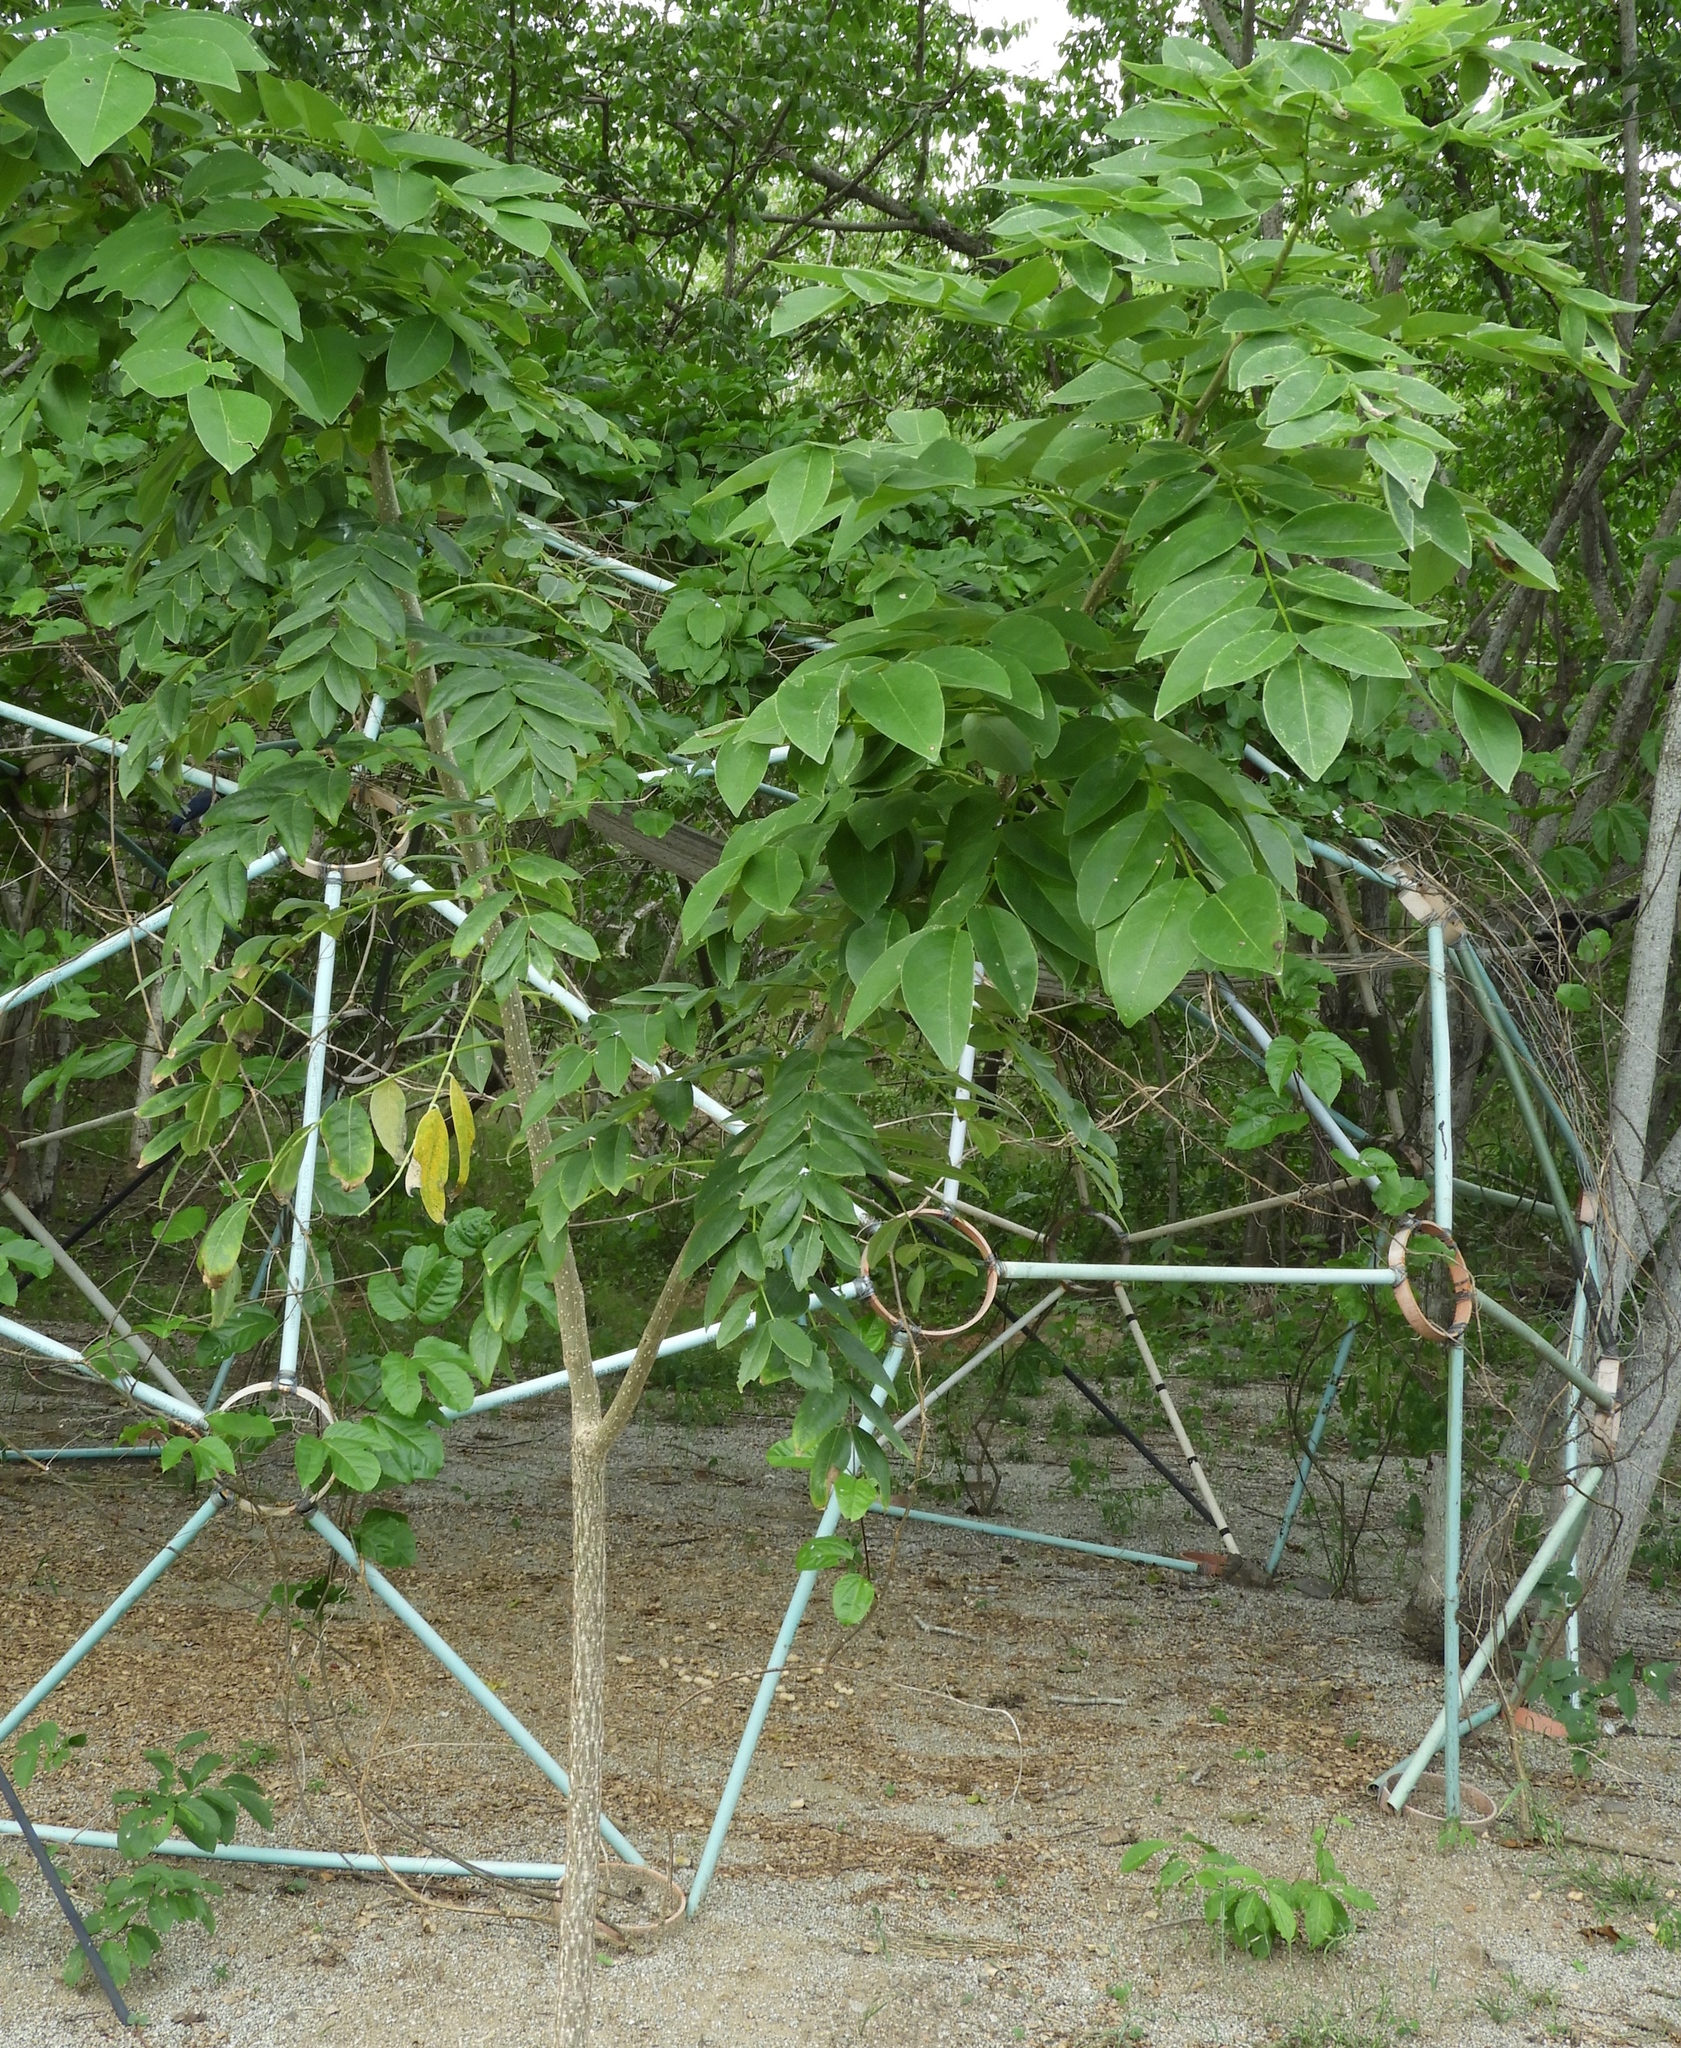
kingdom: Plantae
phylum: Tracheophyta
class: Magnoliopsida
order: Fabales
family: Fabaceae
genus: Gliricidia
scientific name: Gliricidia sepium
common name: Quickstick
